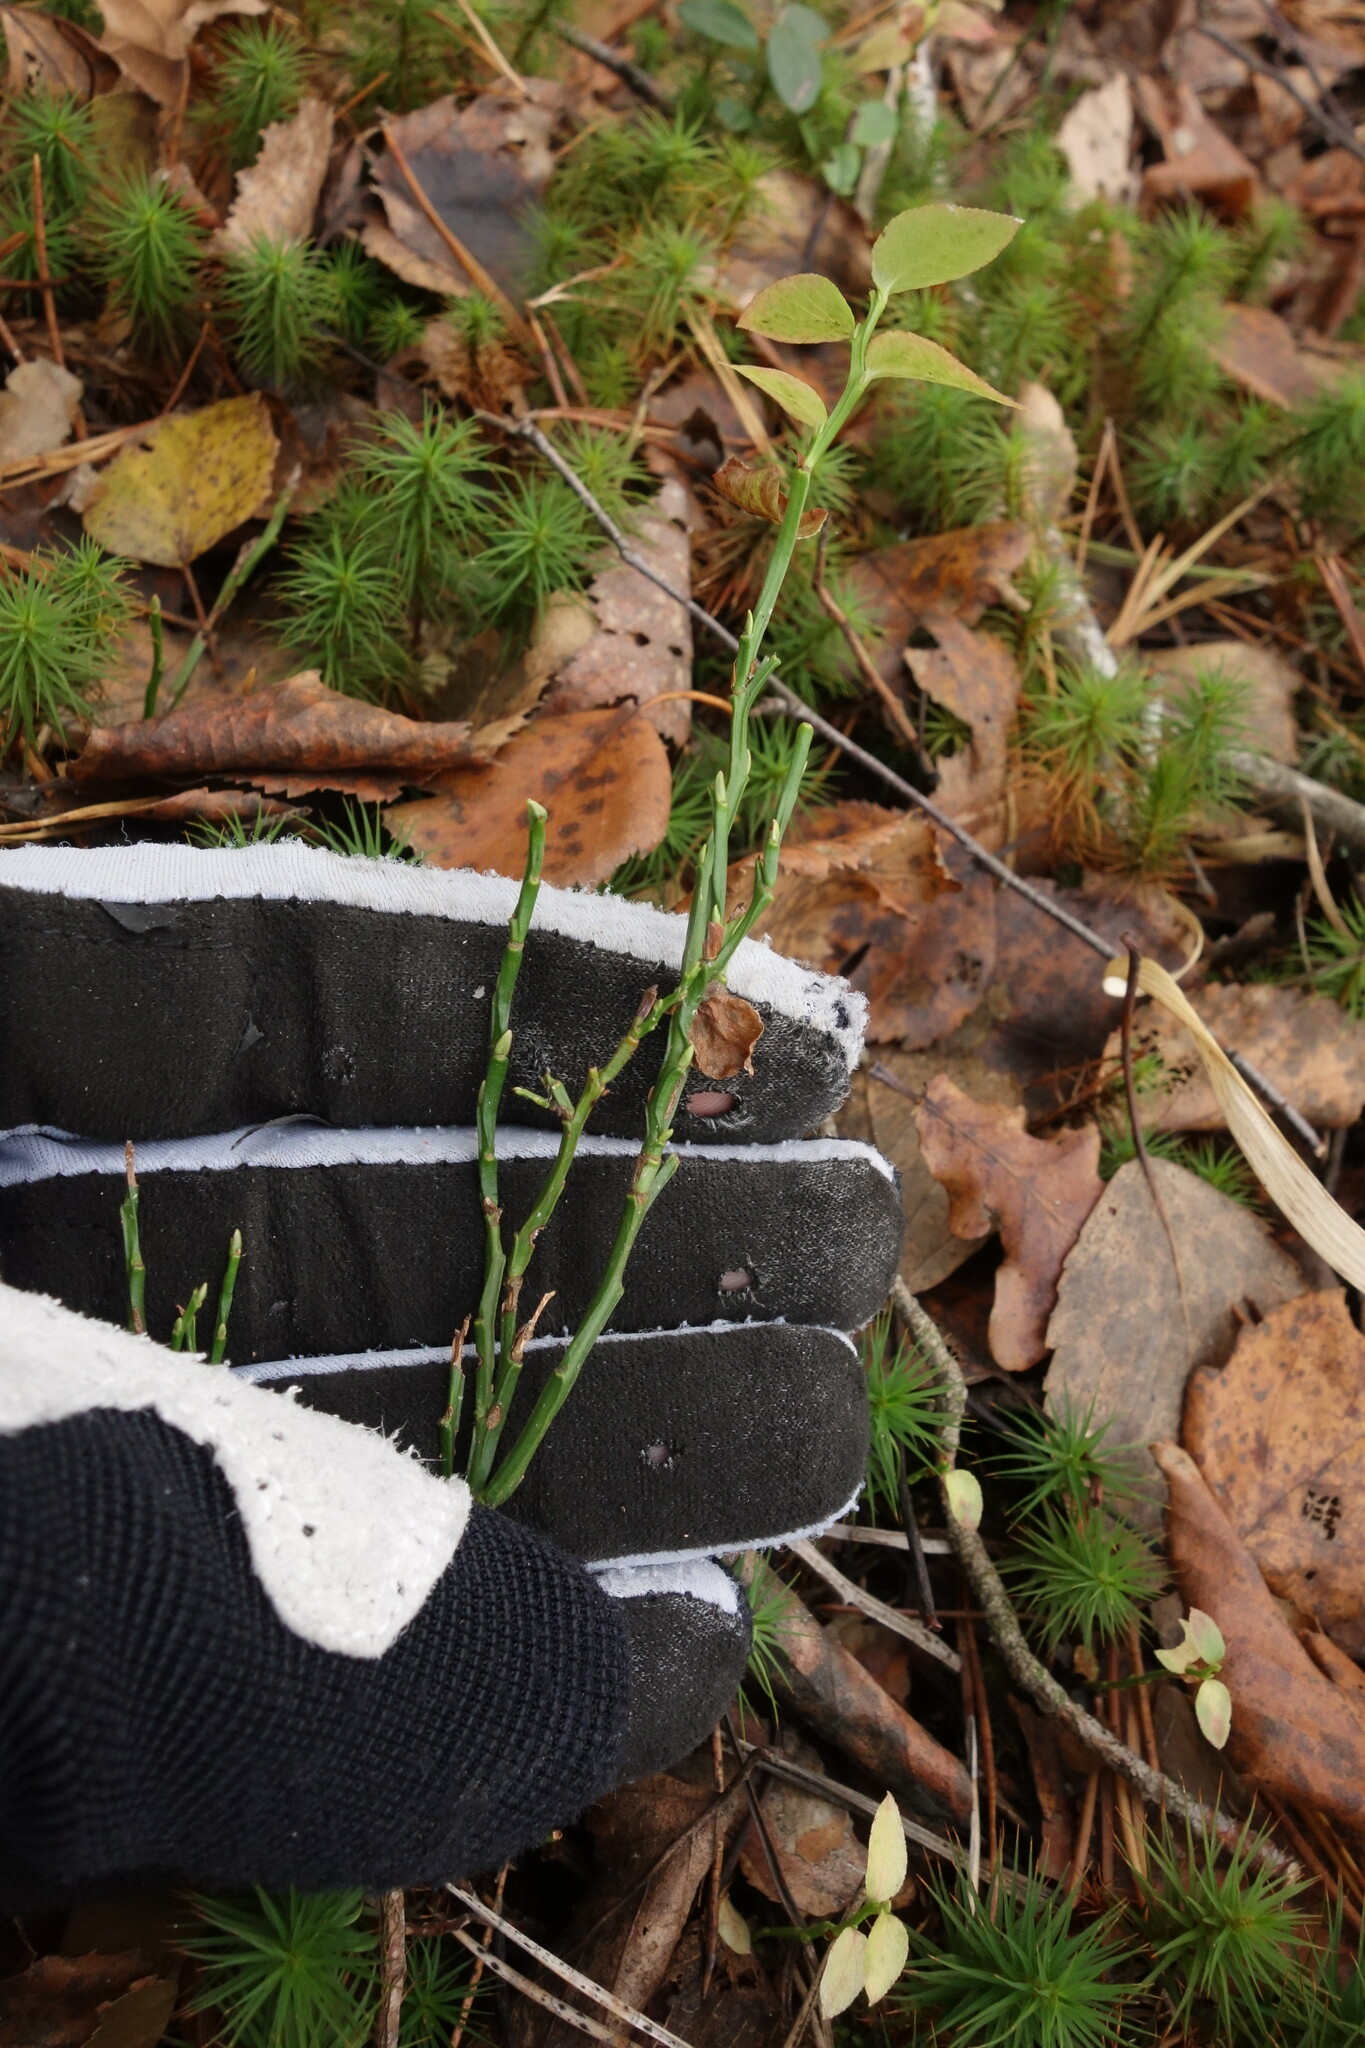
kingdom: Plantae
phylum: Tracheophyta
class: Magnoliopsida
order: Ericales
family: Ericaceae
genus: Vaccinium
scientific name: Vaccinium myrtillus
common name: Bilberry
